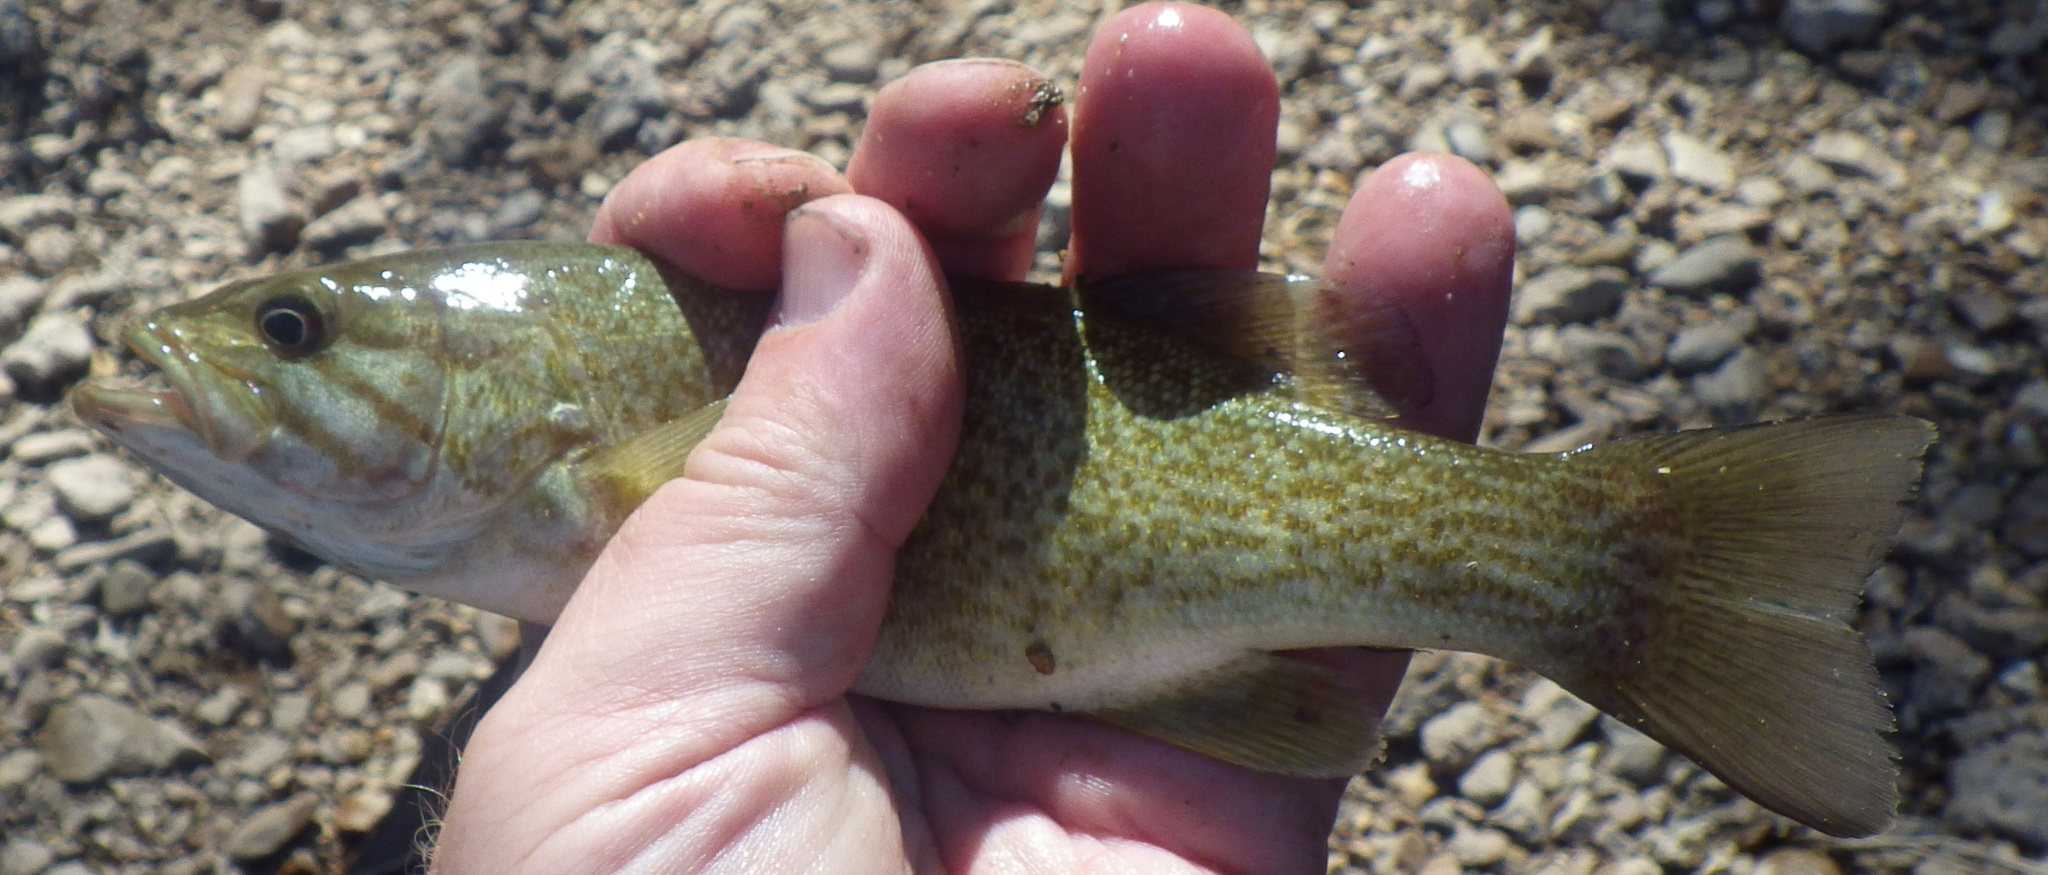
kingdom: Animalia
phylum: Chordata
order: Perciformes
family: Centrarchidae
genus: Micropterus
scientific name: Micropterus dolomieu
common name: Smallmouth bass
